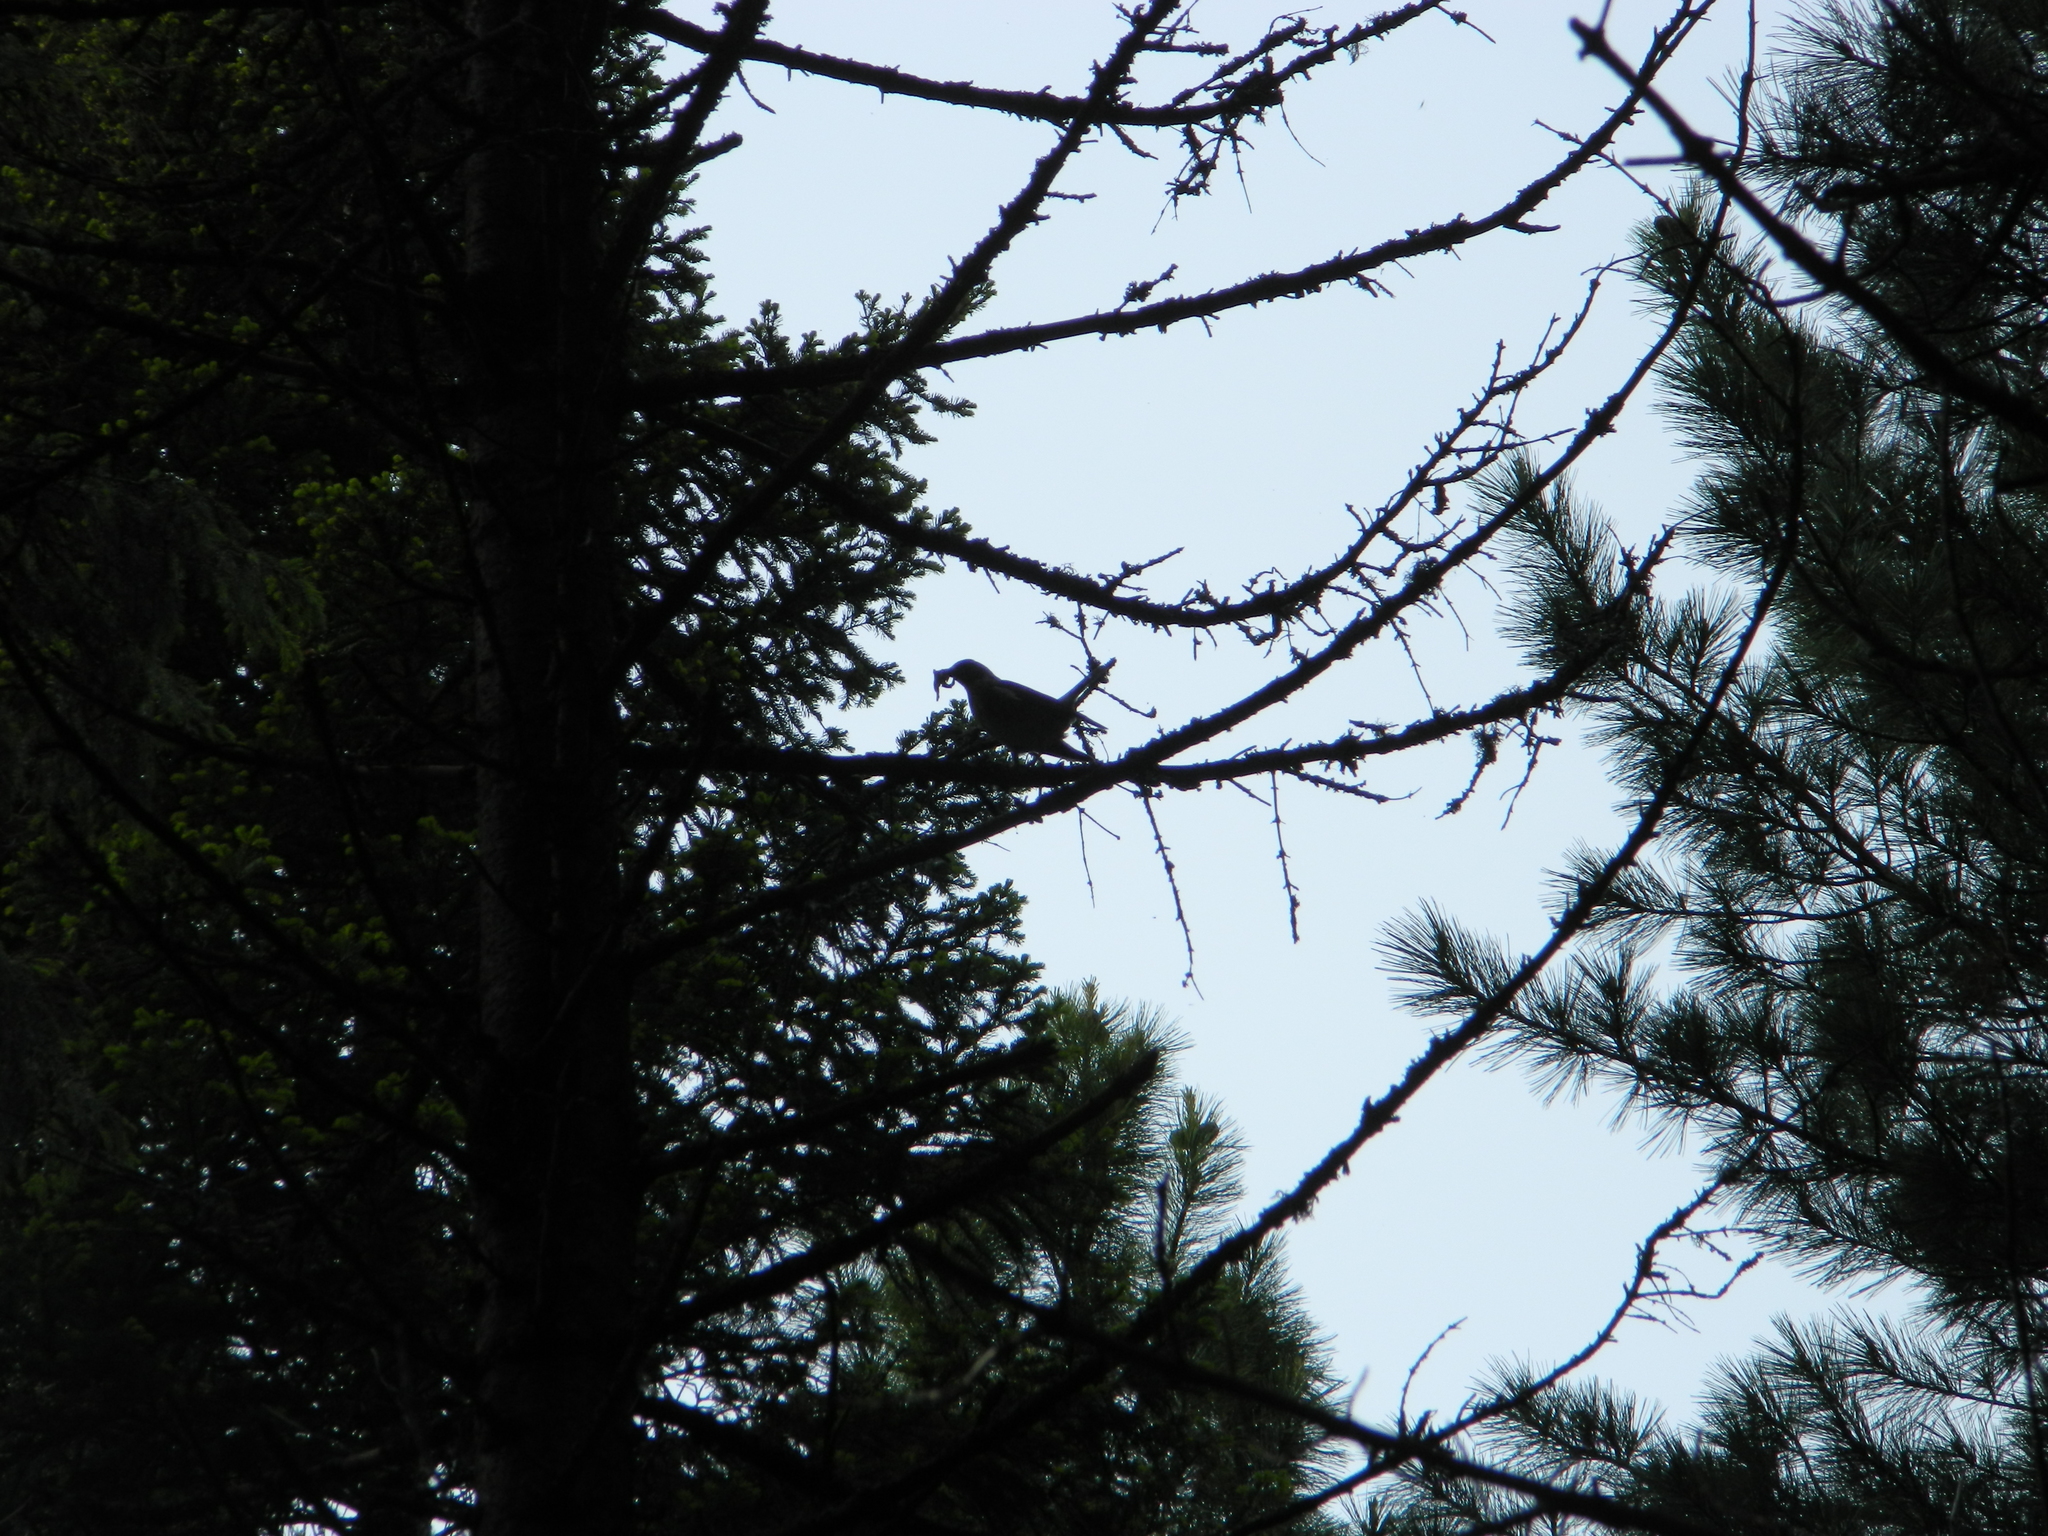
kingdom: Animalia
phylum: Chordata
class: Aves
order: Passeriformes
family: Turdidae
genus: Turdus
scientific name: Turdus pilaris
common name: Fieldfare
